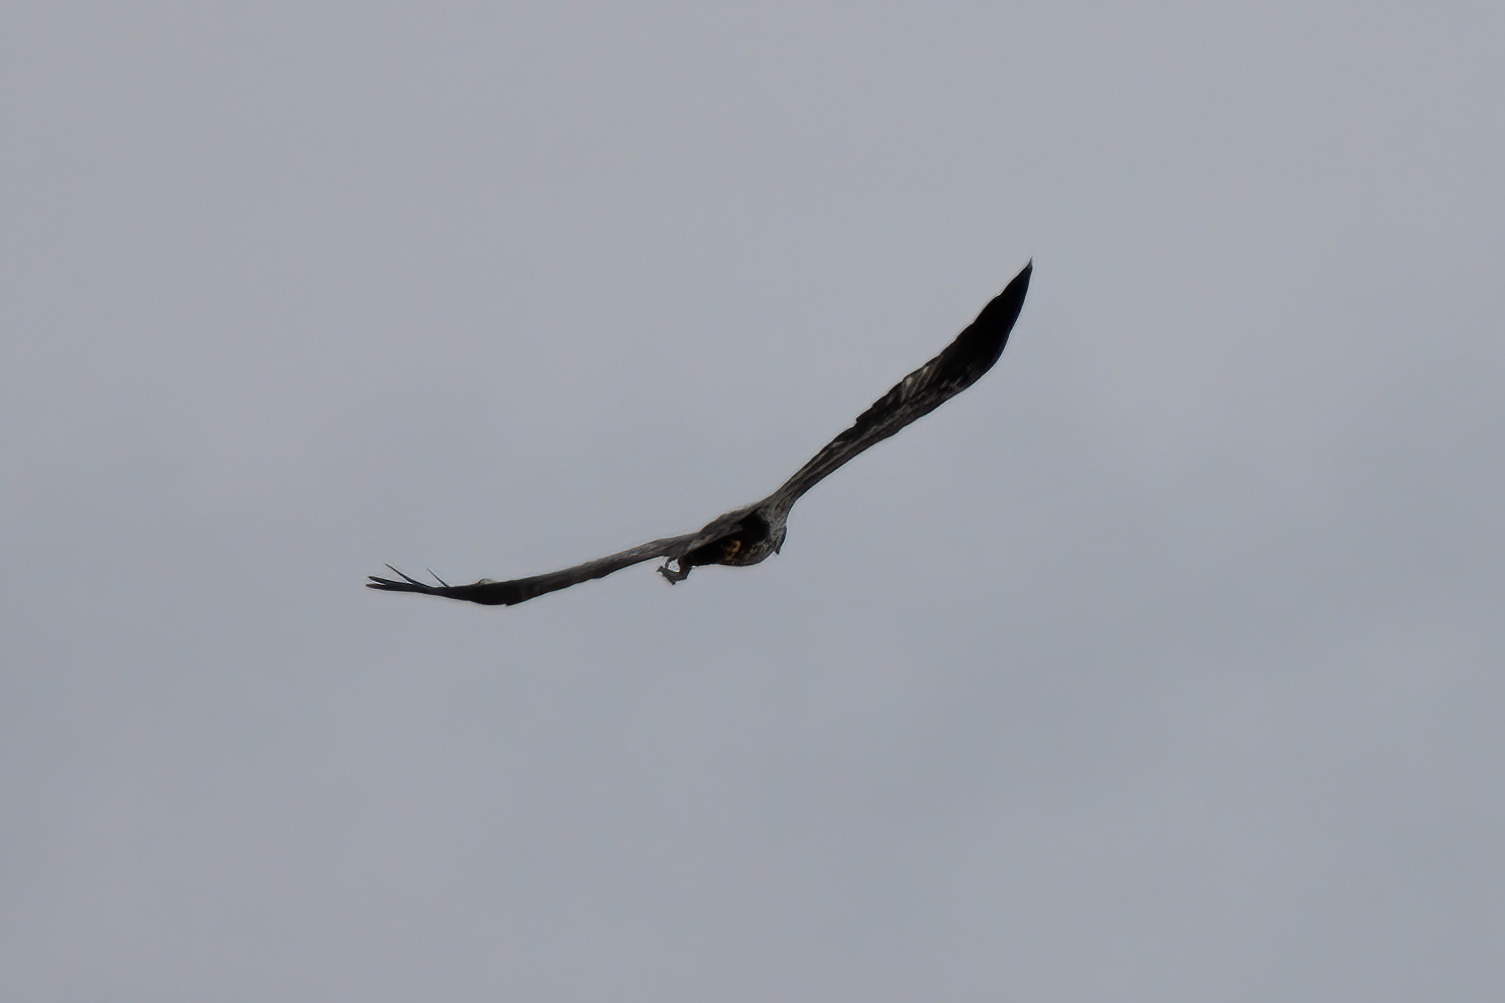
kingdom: Animalia
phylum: Chordata
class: Aves
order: Accipitriformes
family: Accipitridae
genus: Haliaeetus
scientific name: Haliaeetus leucocephalus
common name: Bald eagle
